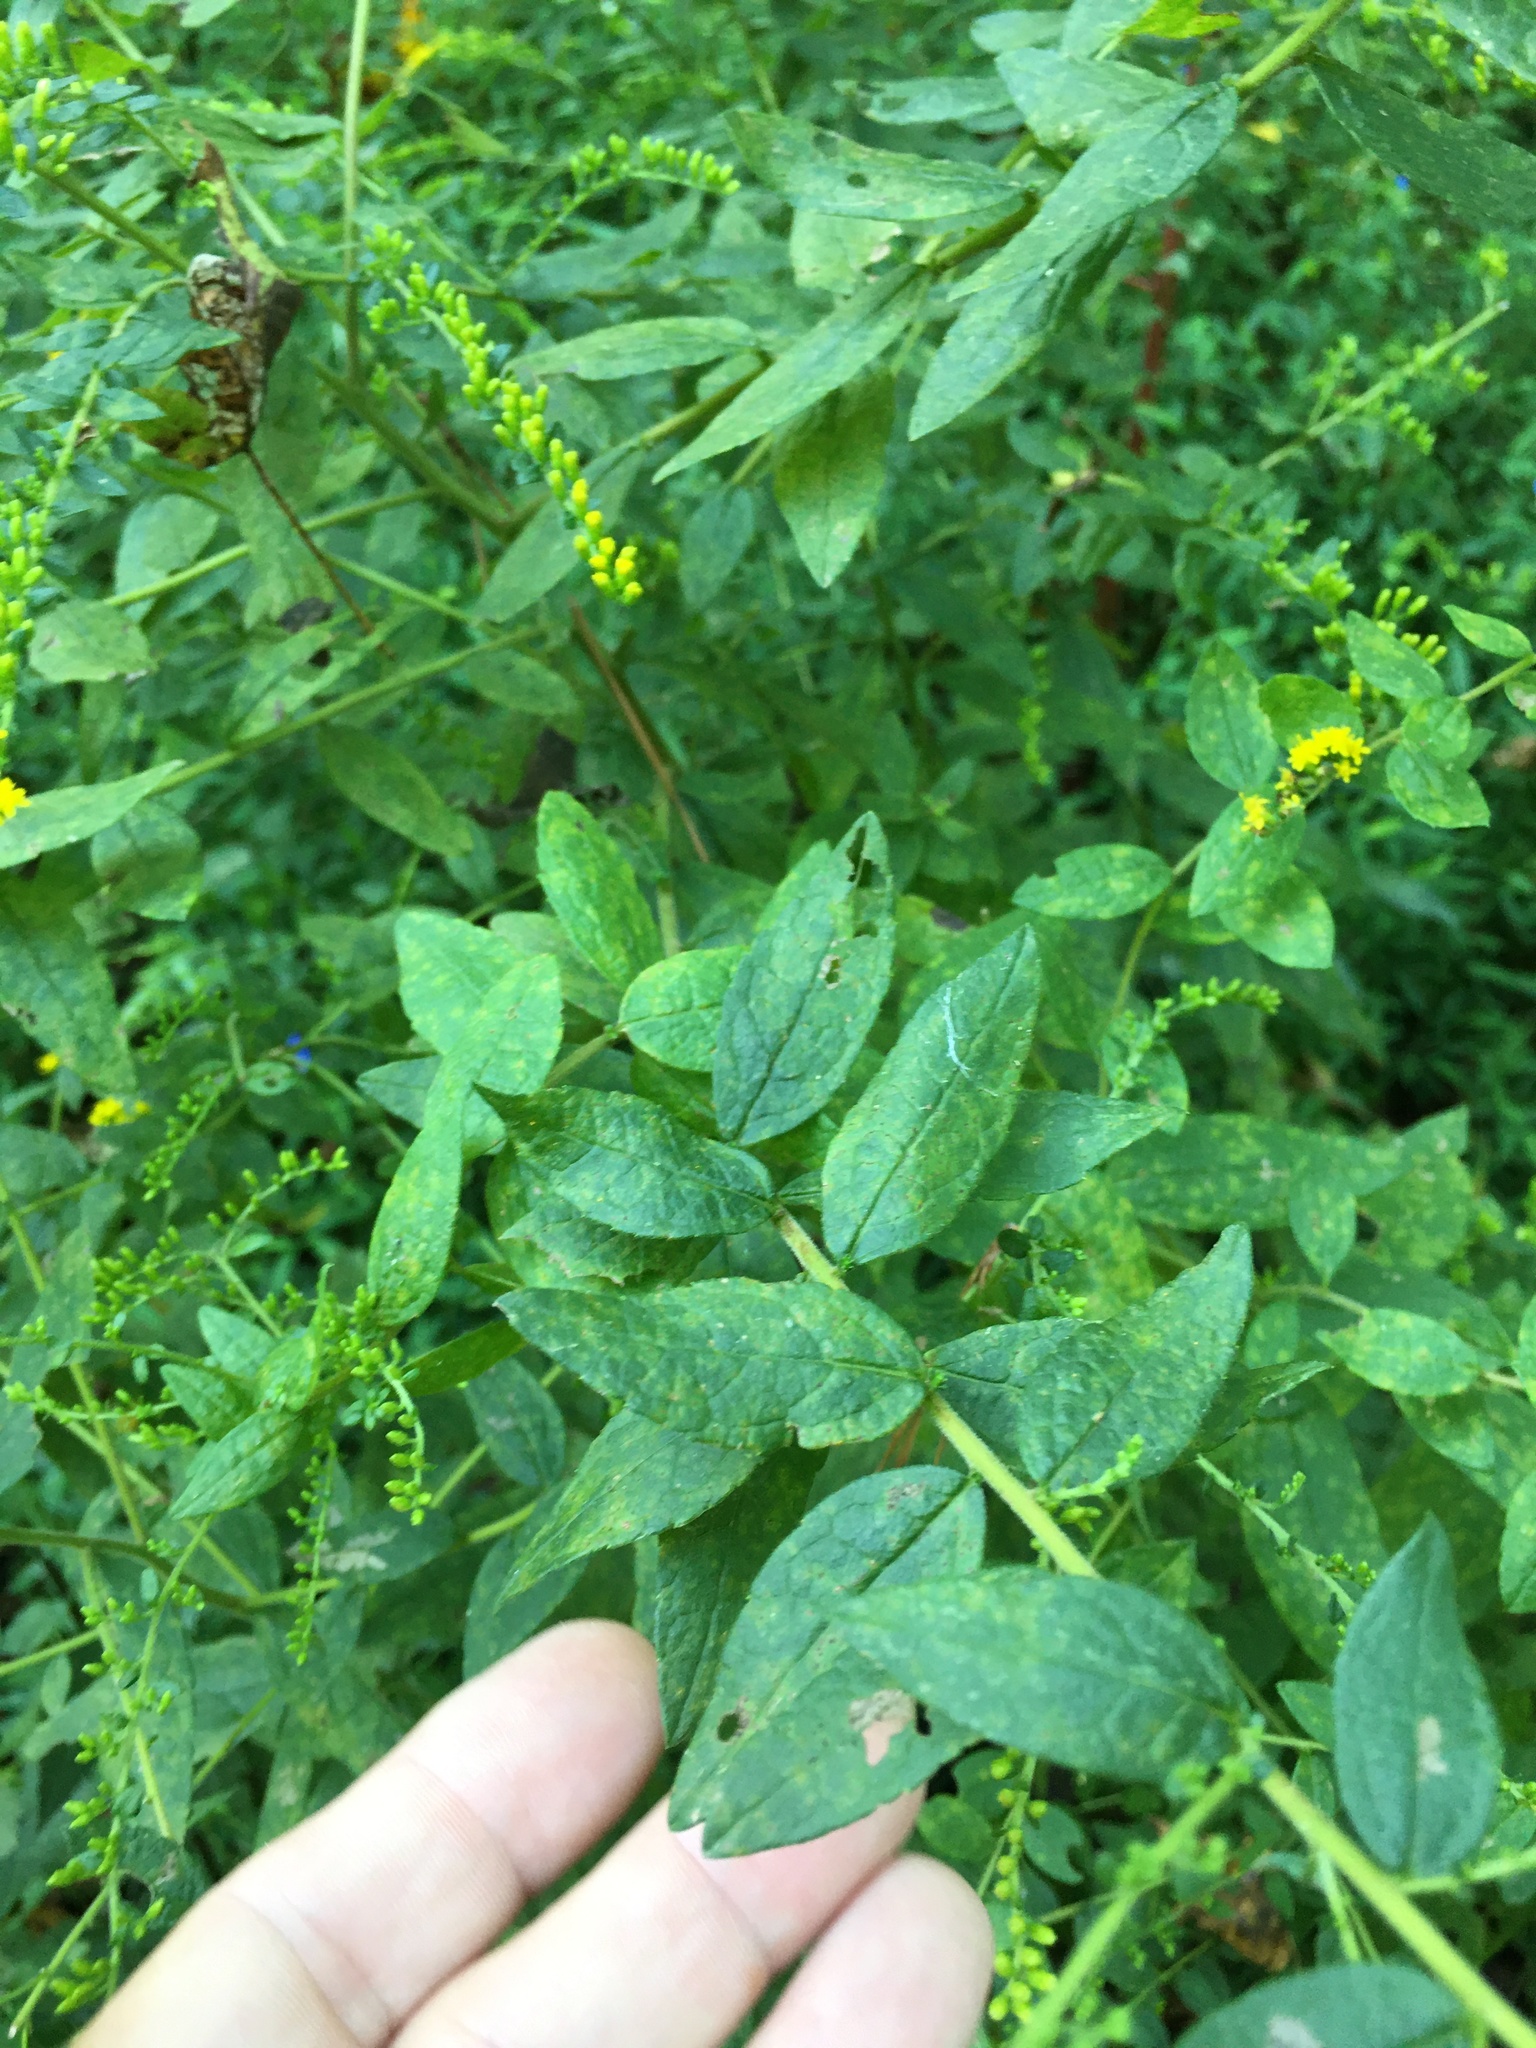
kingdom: Plantae
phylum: Tracheophyta
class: Magnoliopsida
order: Asterales
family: Asteraceae
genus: Solidago
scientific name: Solidago rugosa
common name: Rough-stemmed goldenrod
